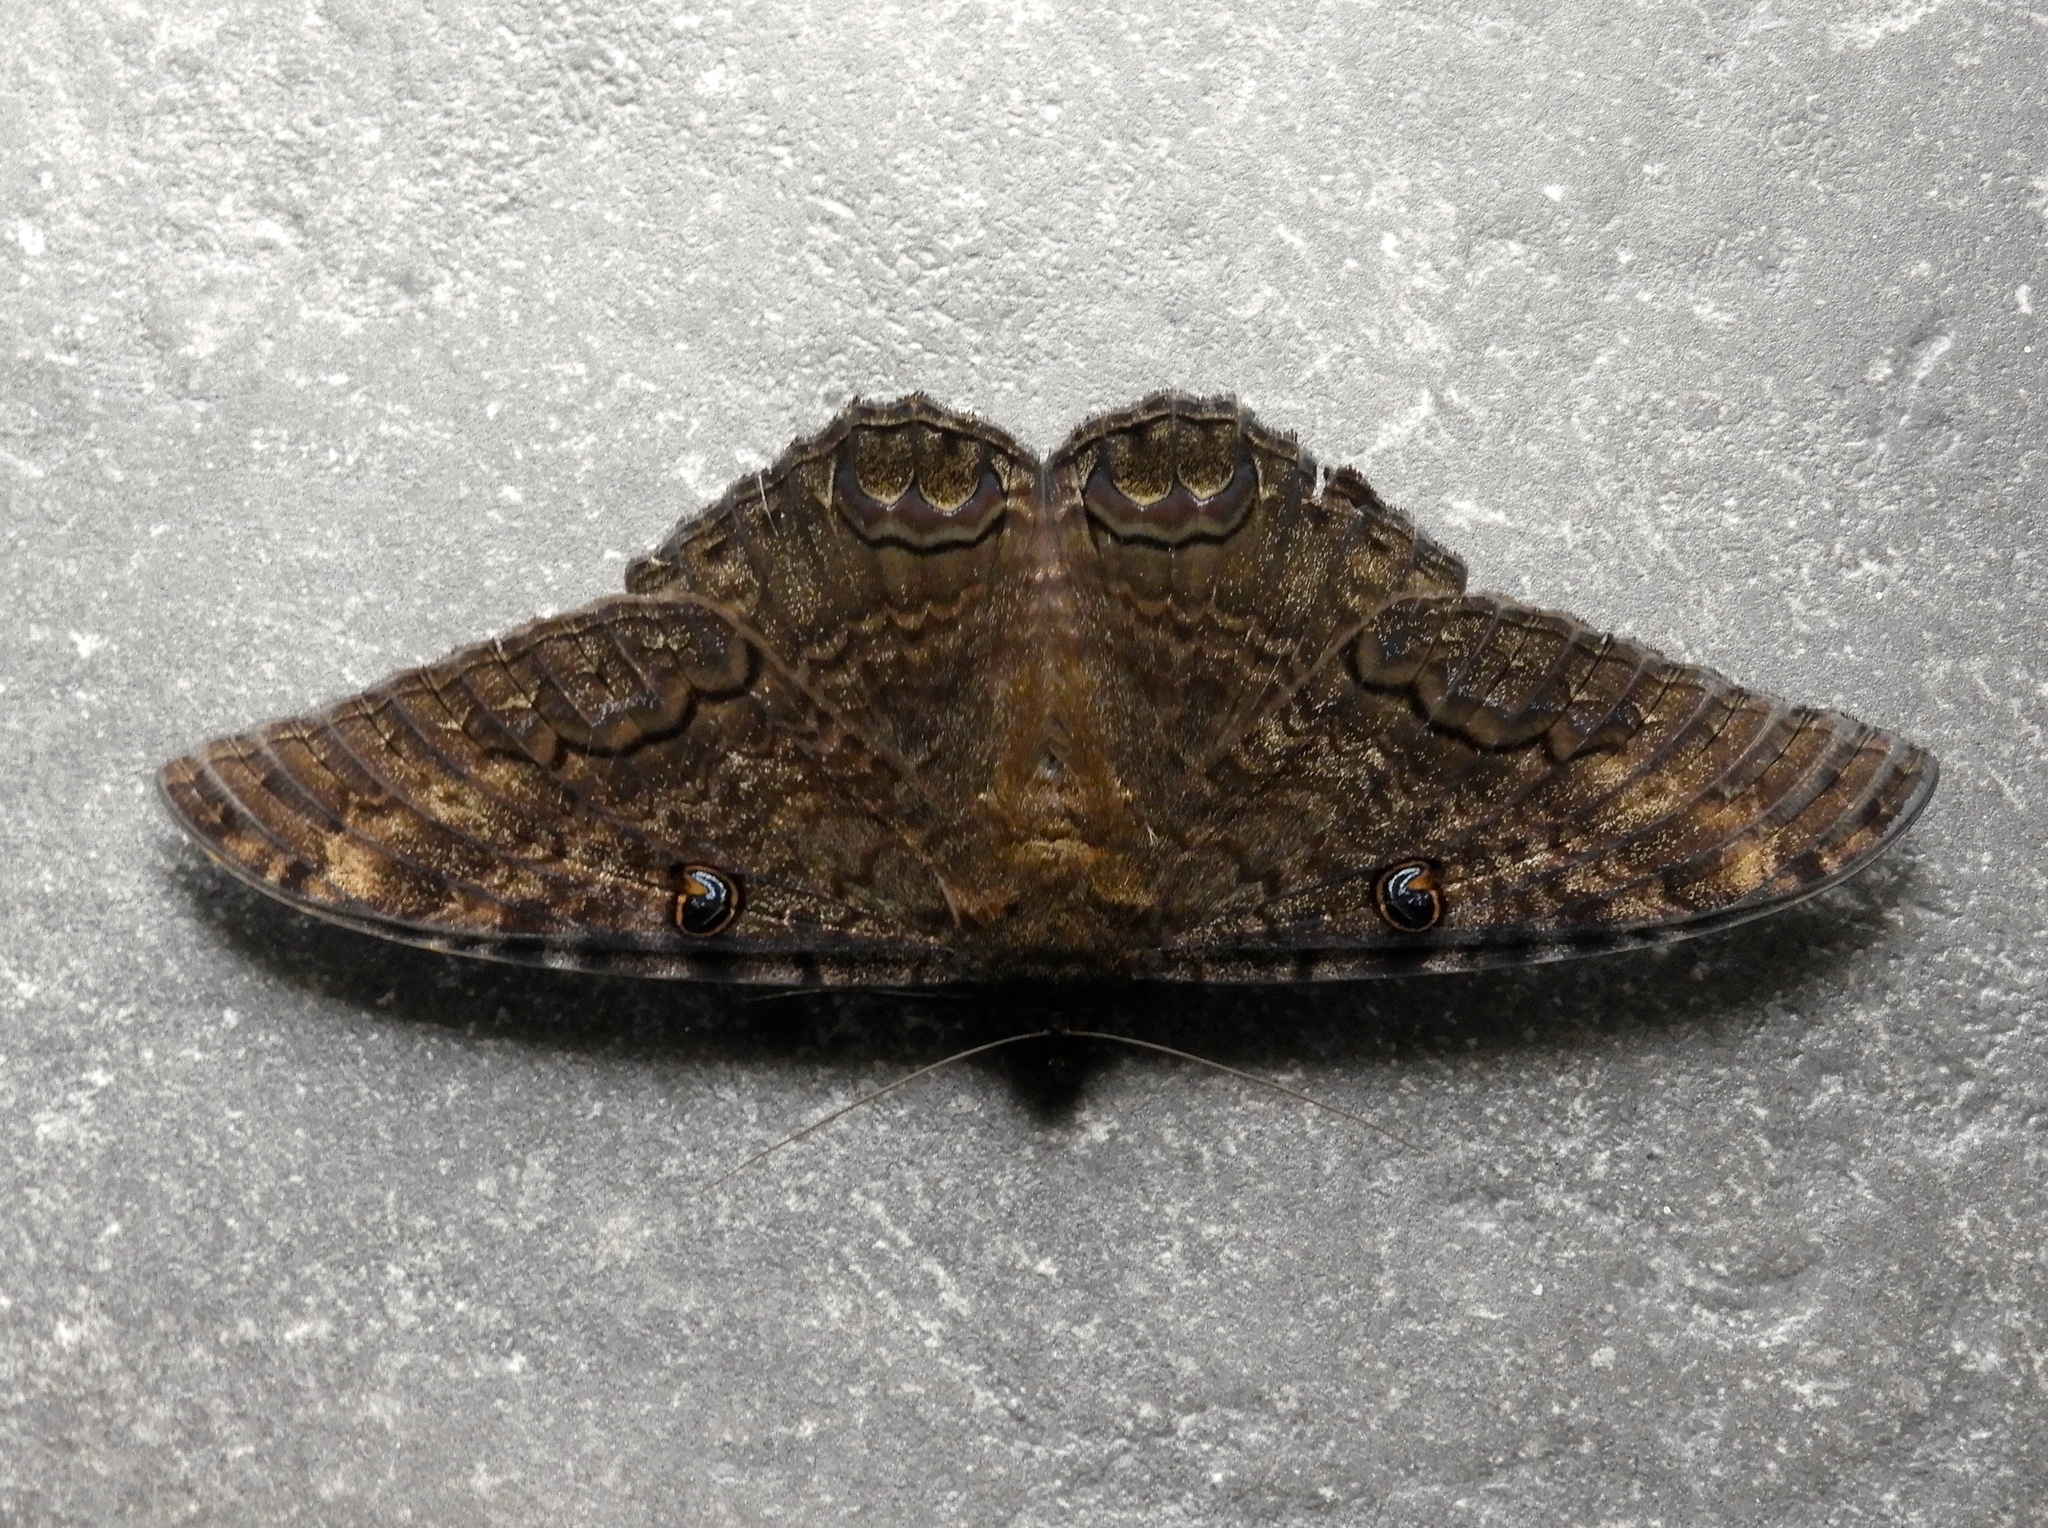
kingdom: Animalia
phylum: Arthropoda
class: Insecta
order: Lepidoptera
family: Erebidae
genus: Ascalapha
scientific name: Ascalapha odorata
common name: Black witch
